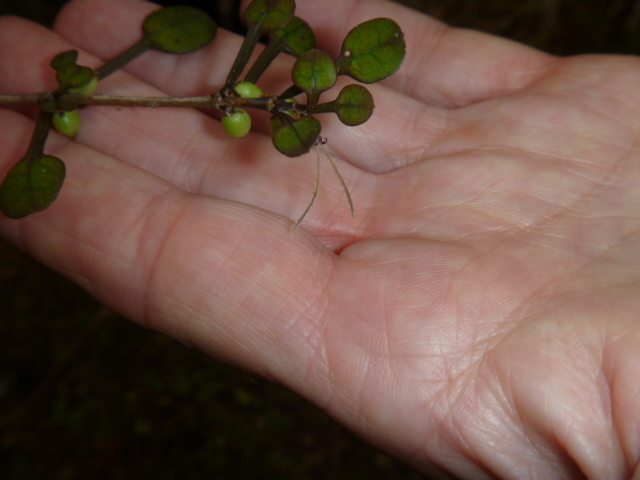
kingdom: Plantae
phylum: Tracheophyta
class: Magnoliopsida
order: Gentianales
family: Rubiaceae
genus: Coprosma
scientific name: Coprosma spathulata
